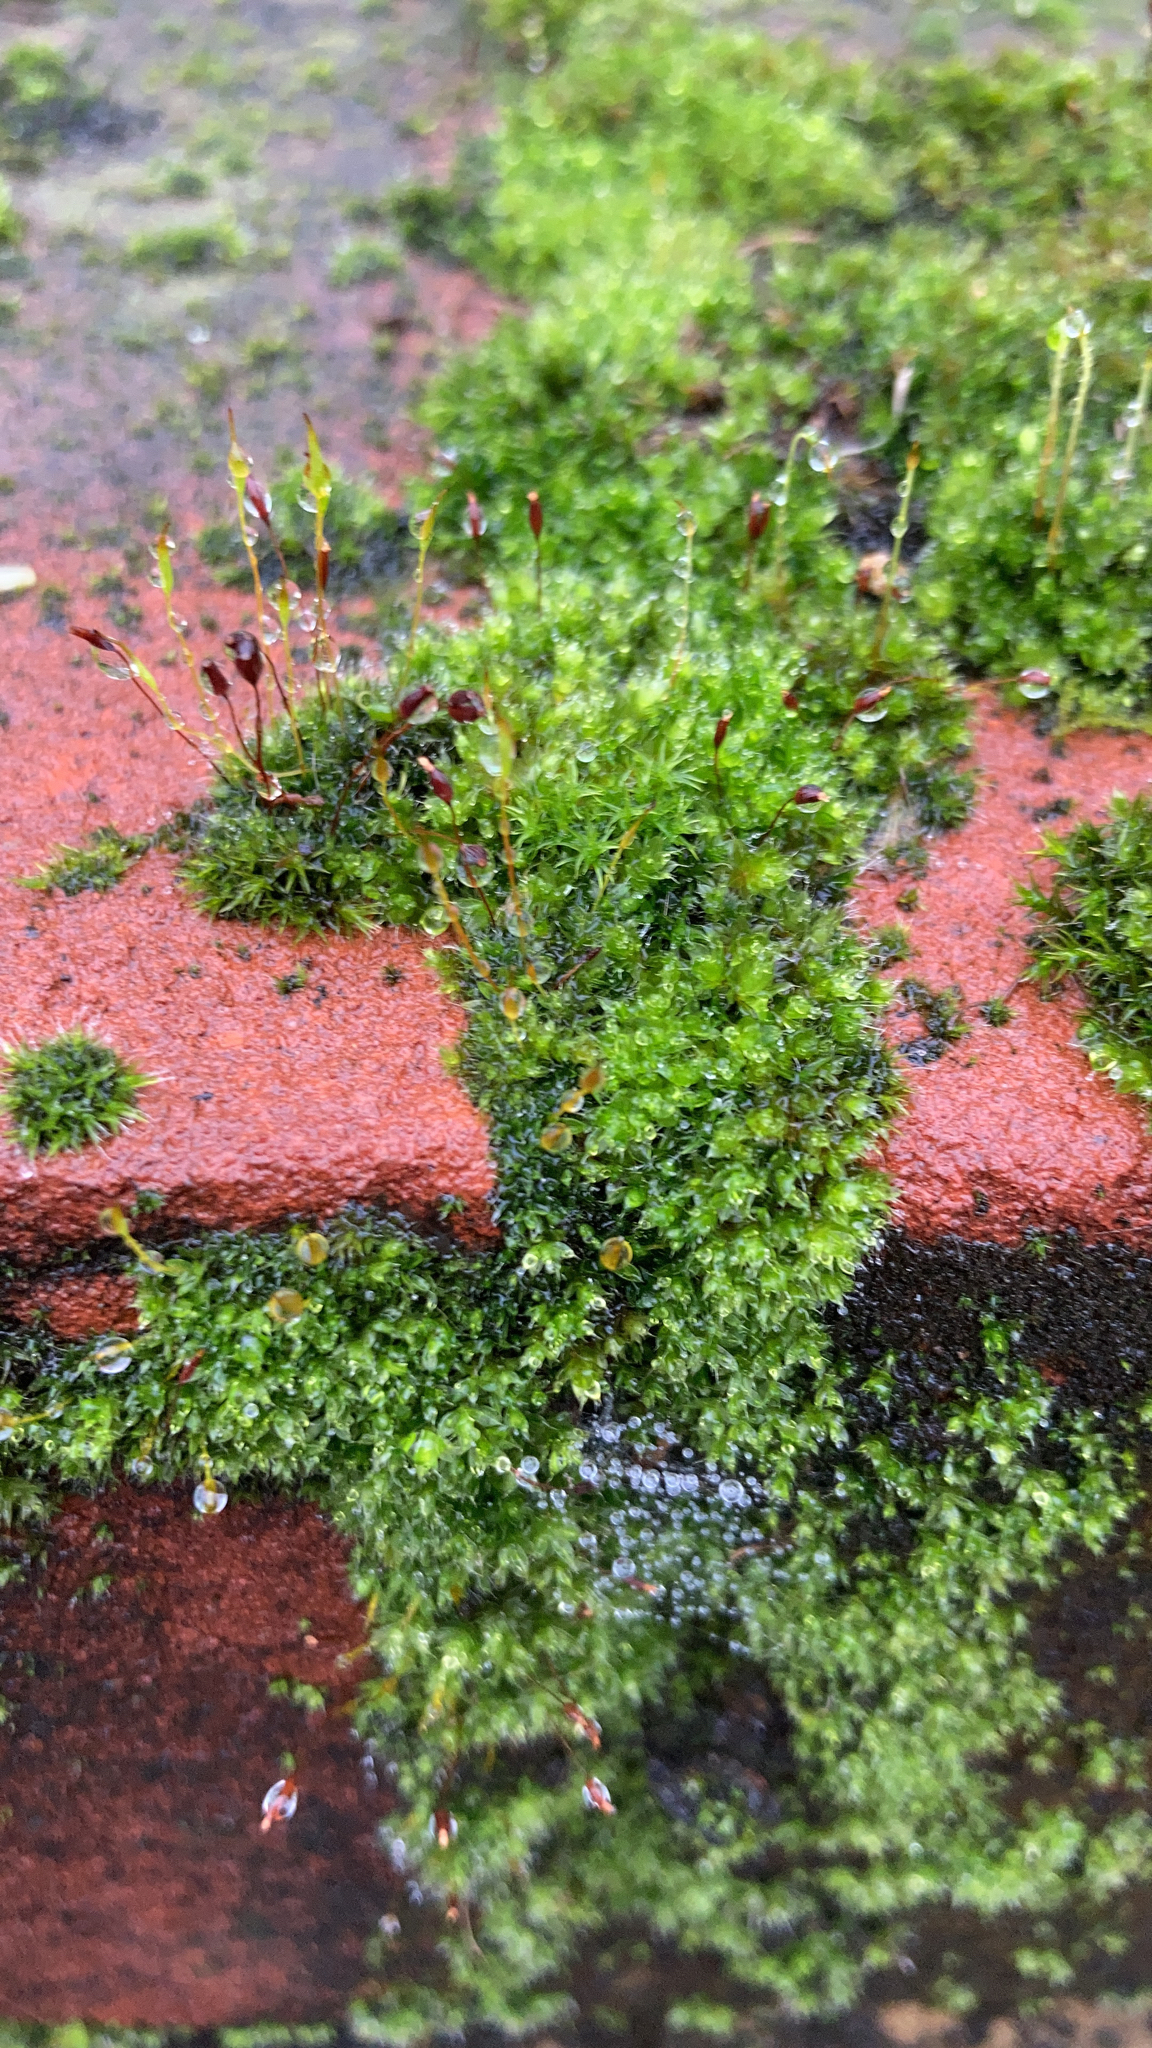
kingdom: Plantae
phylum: Bryophyta
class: Bryopsida
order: Pottiales
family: Pottiaceae
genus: Tortula
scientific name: Tortula muralis
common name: Wall screw-moss
